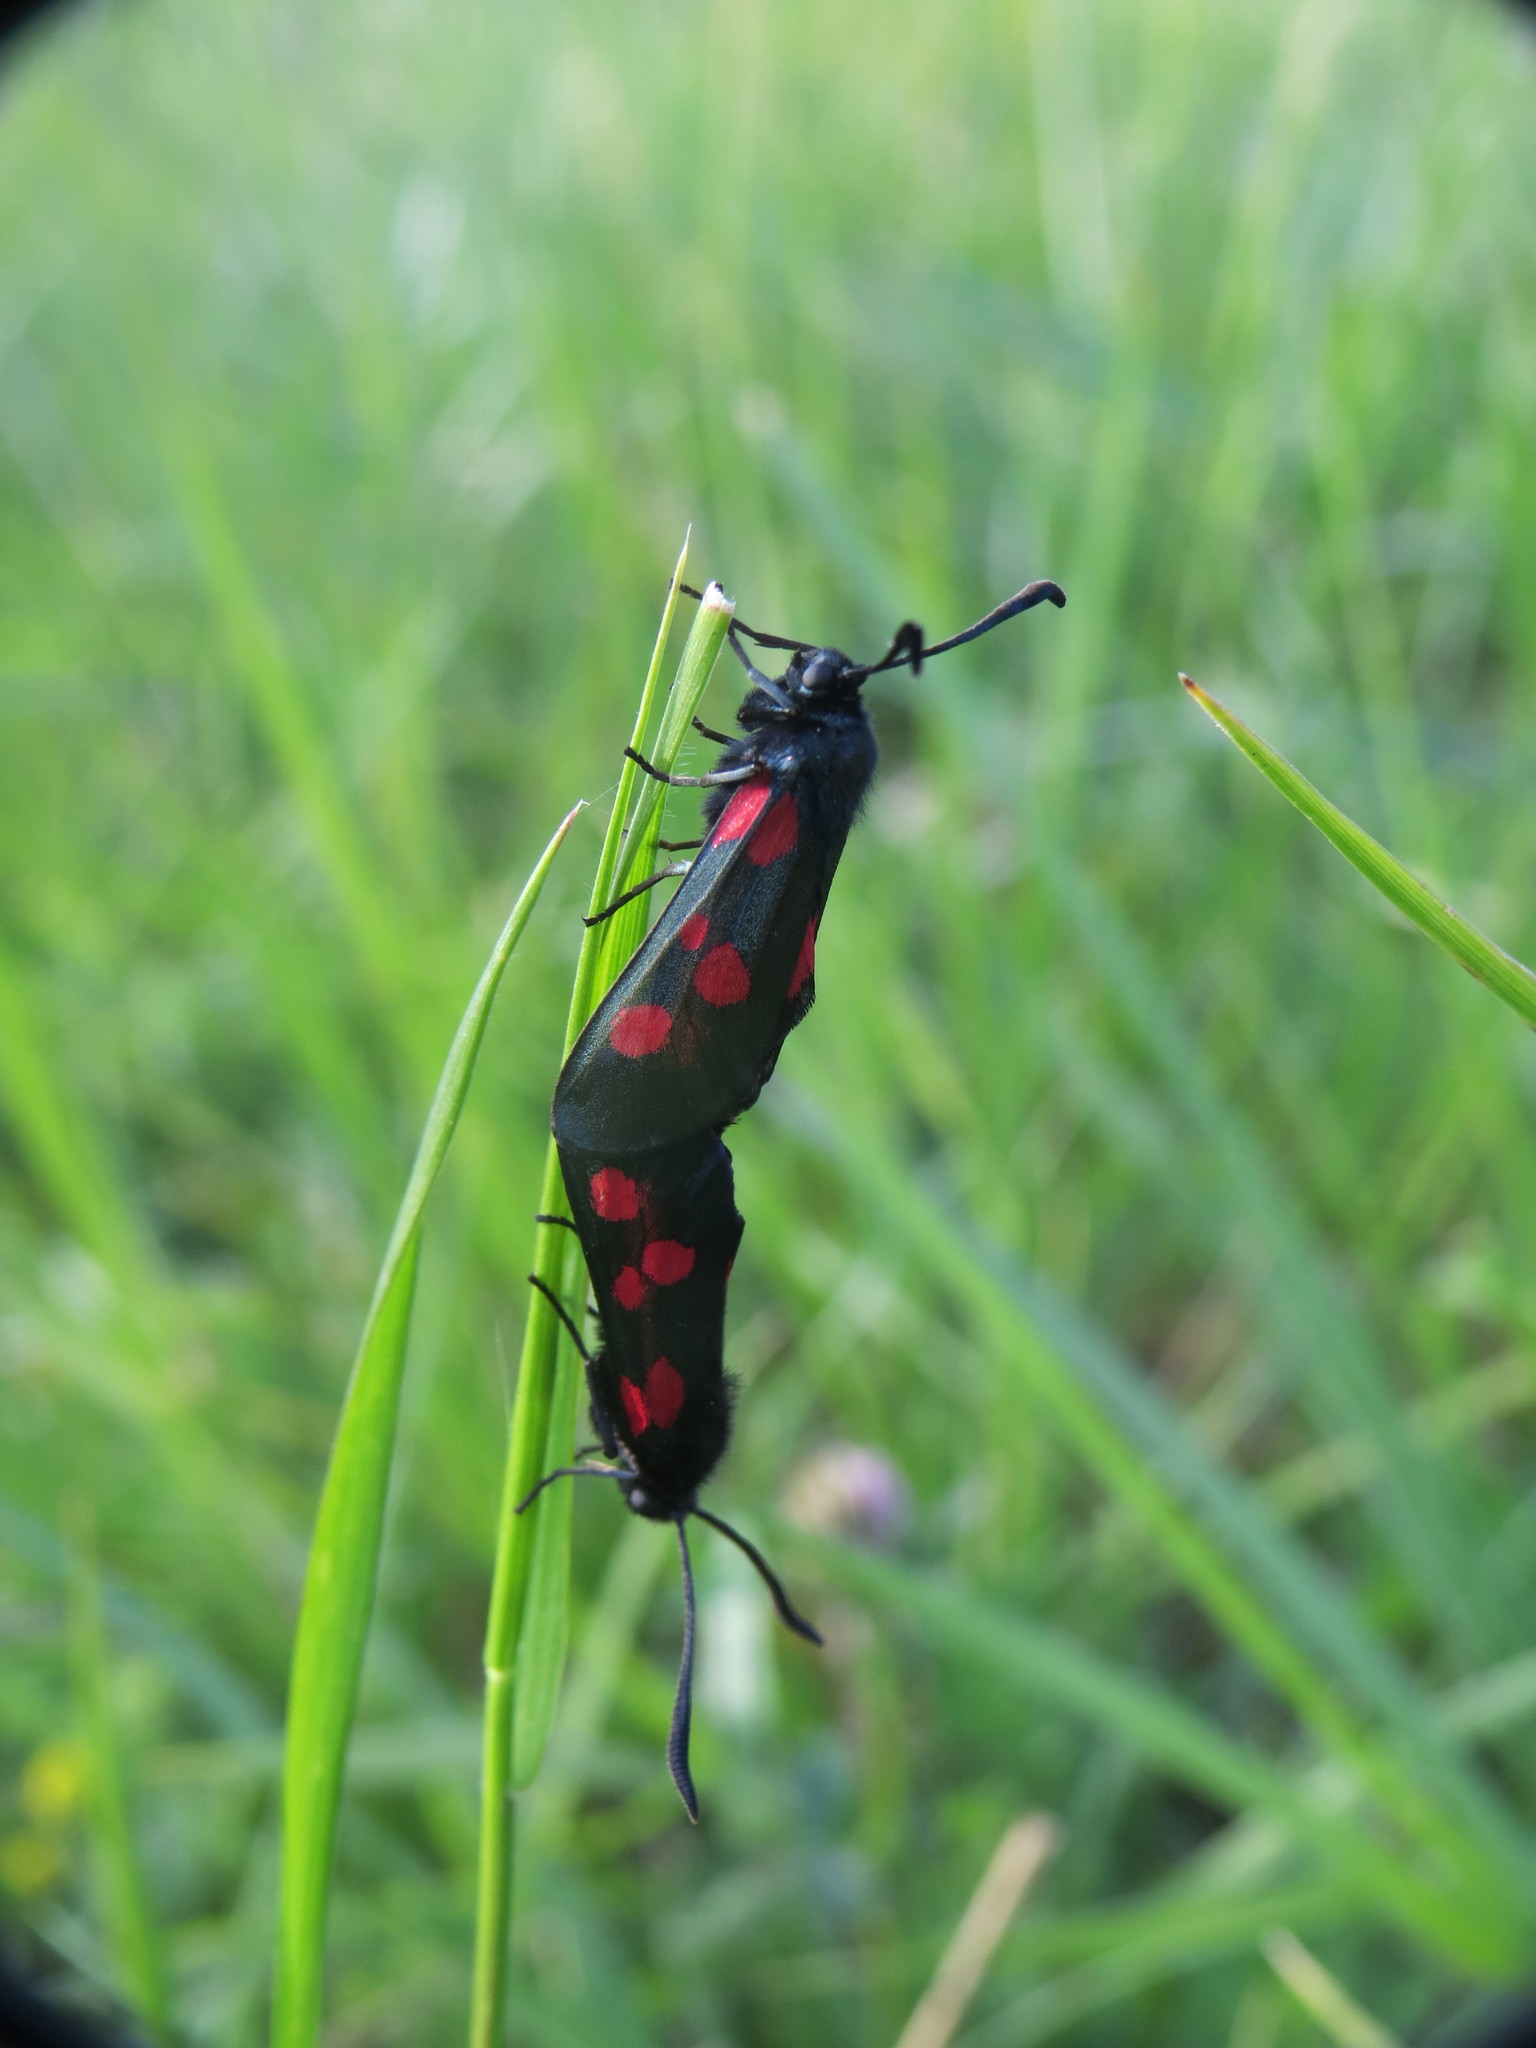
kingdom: Animalia
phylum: Arthropoda
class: Insecta
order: Lepidoptera
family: Zygaenidae
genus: Zygaena
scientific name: Zygaena lonicerae
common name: Narrow-bordered five-spot burnet
